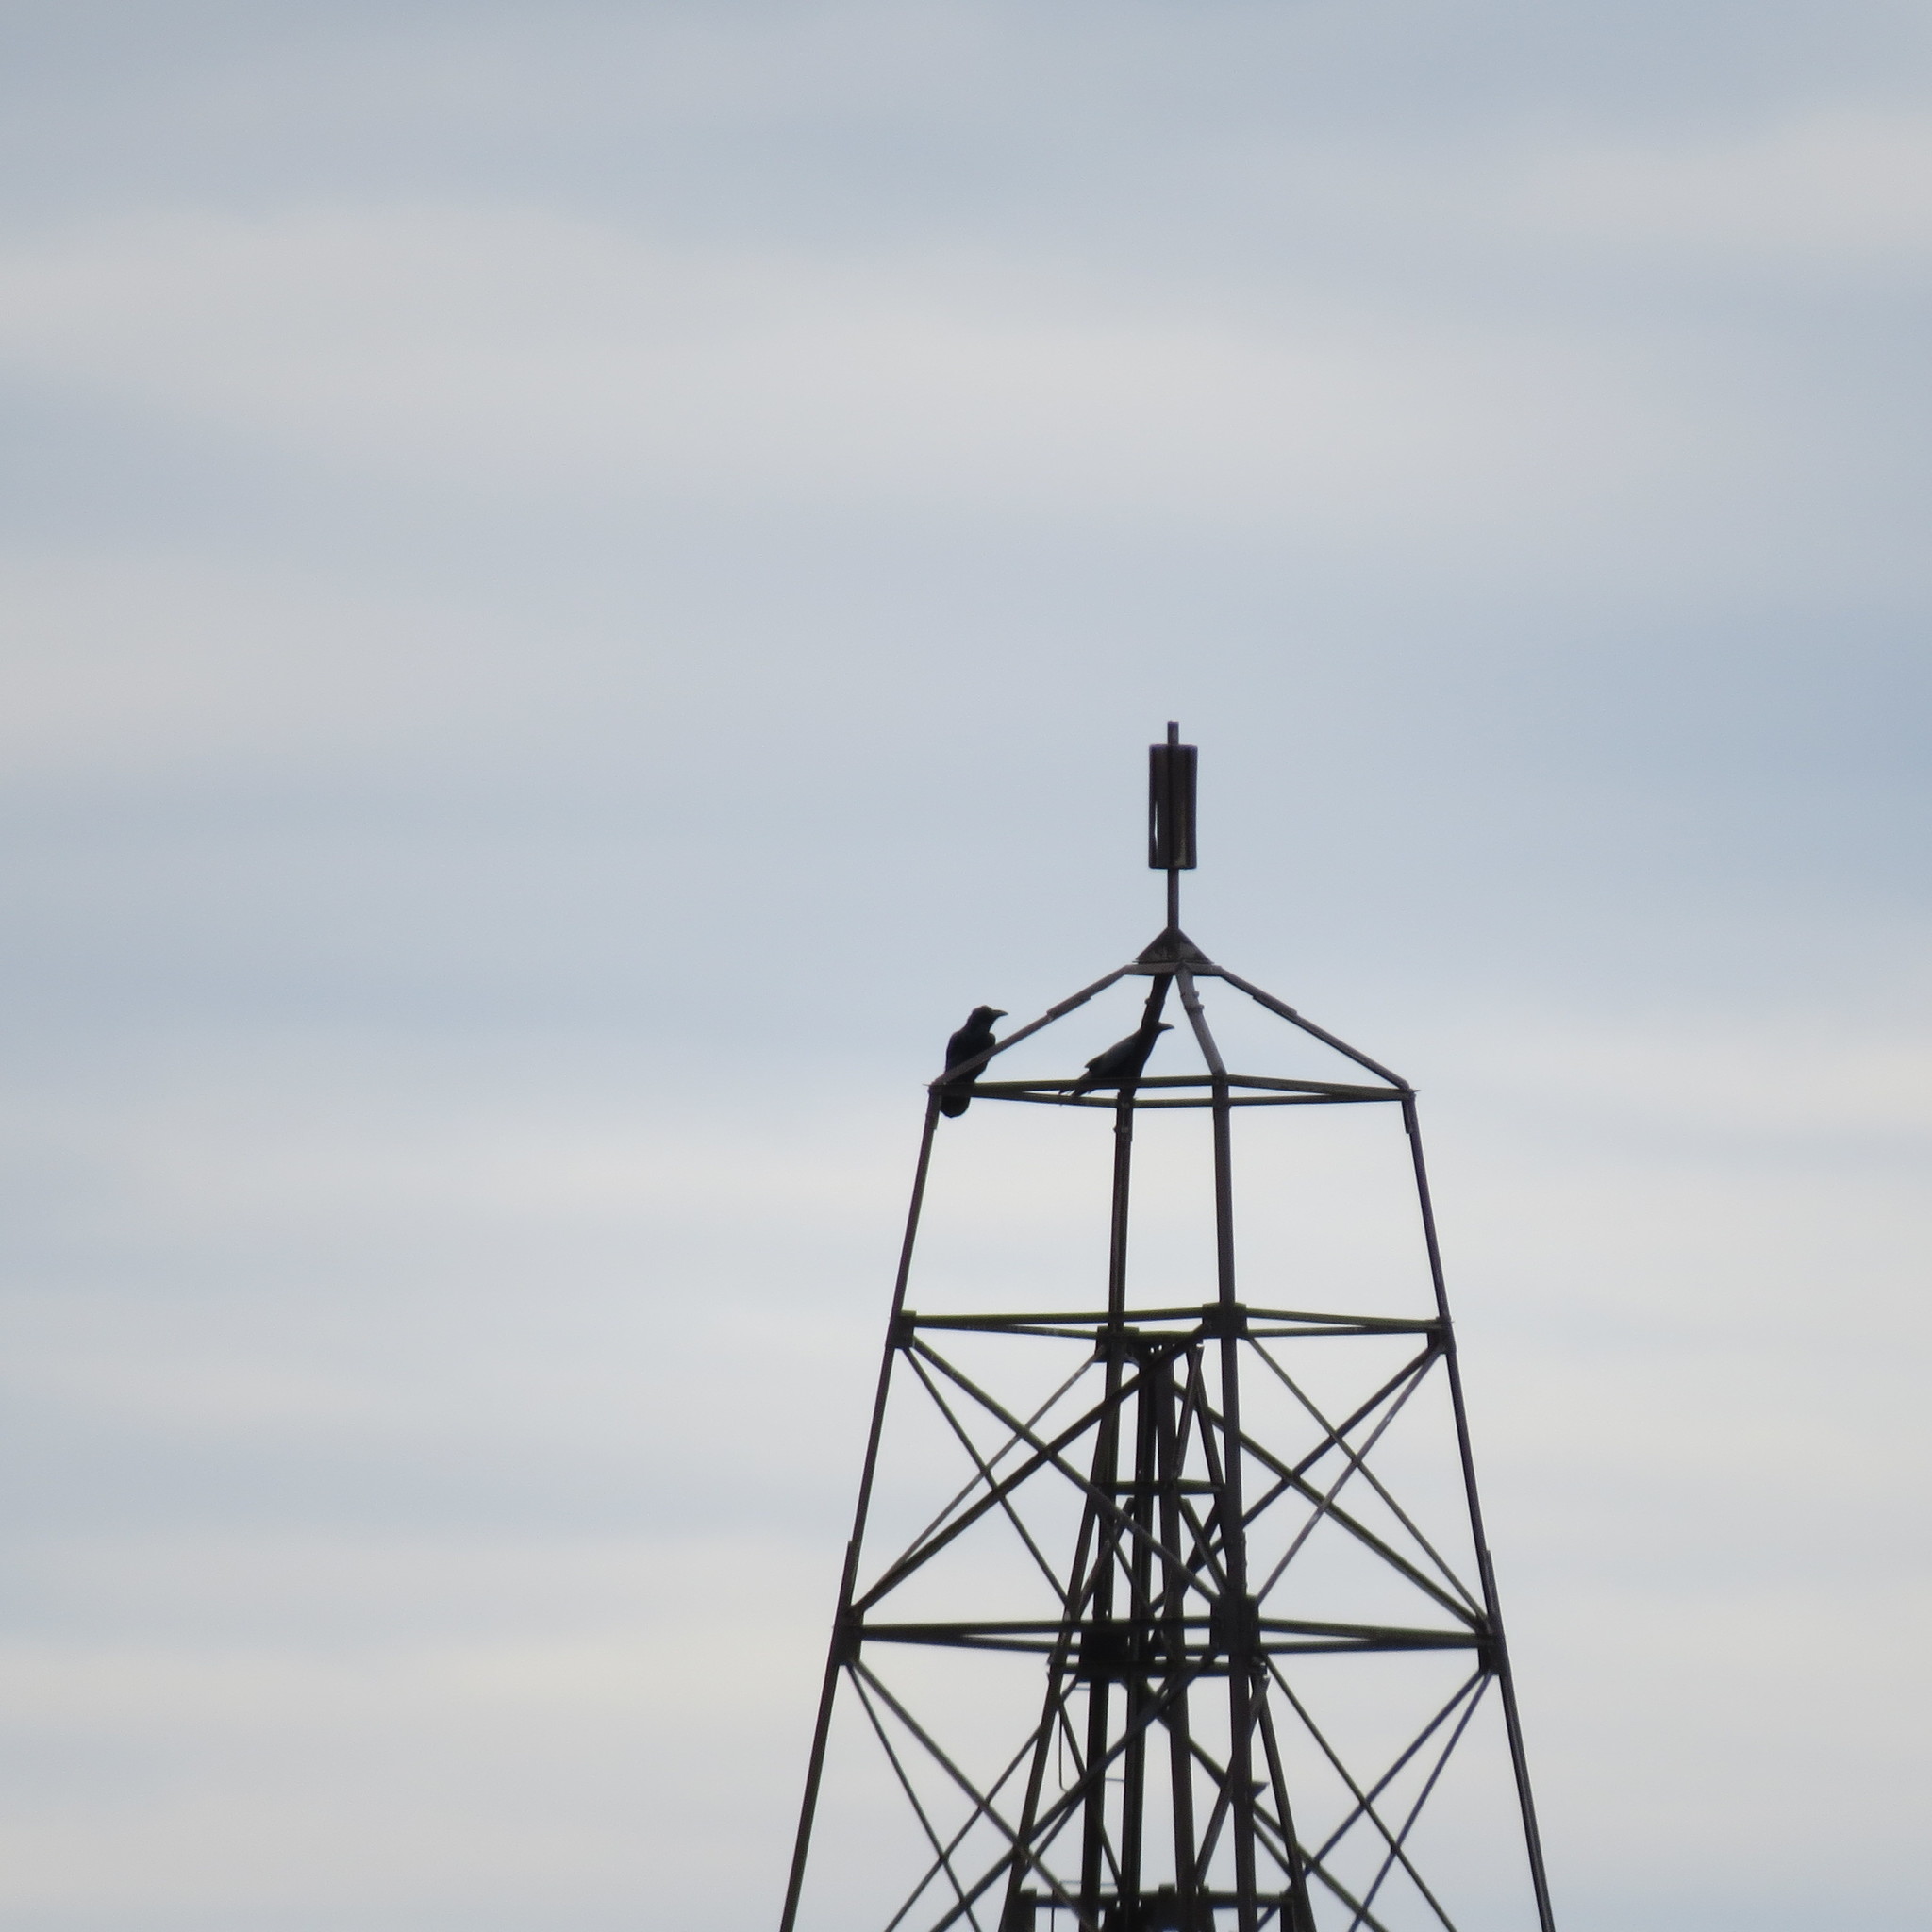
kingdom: Animalia
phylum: Chordata
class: Aves
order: Passeriformes
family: Corvidae
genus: Corvus
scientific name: Corvus corax
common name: Common raven
